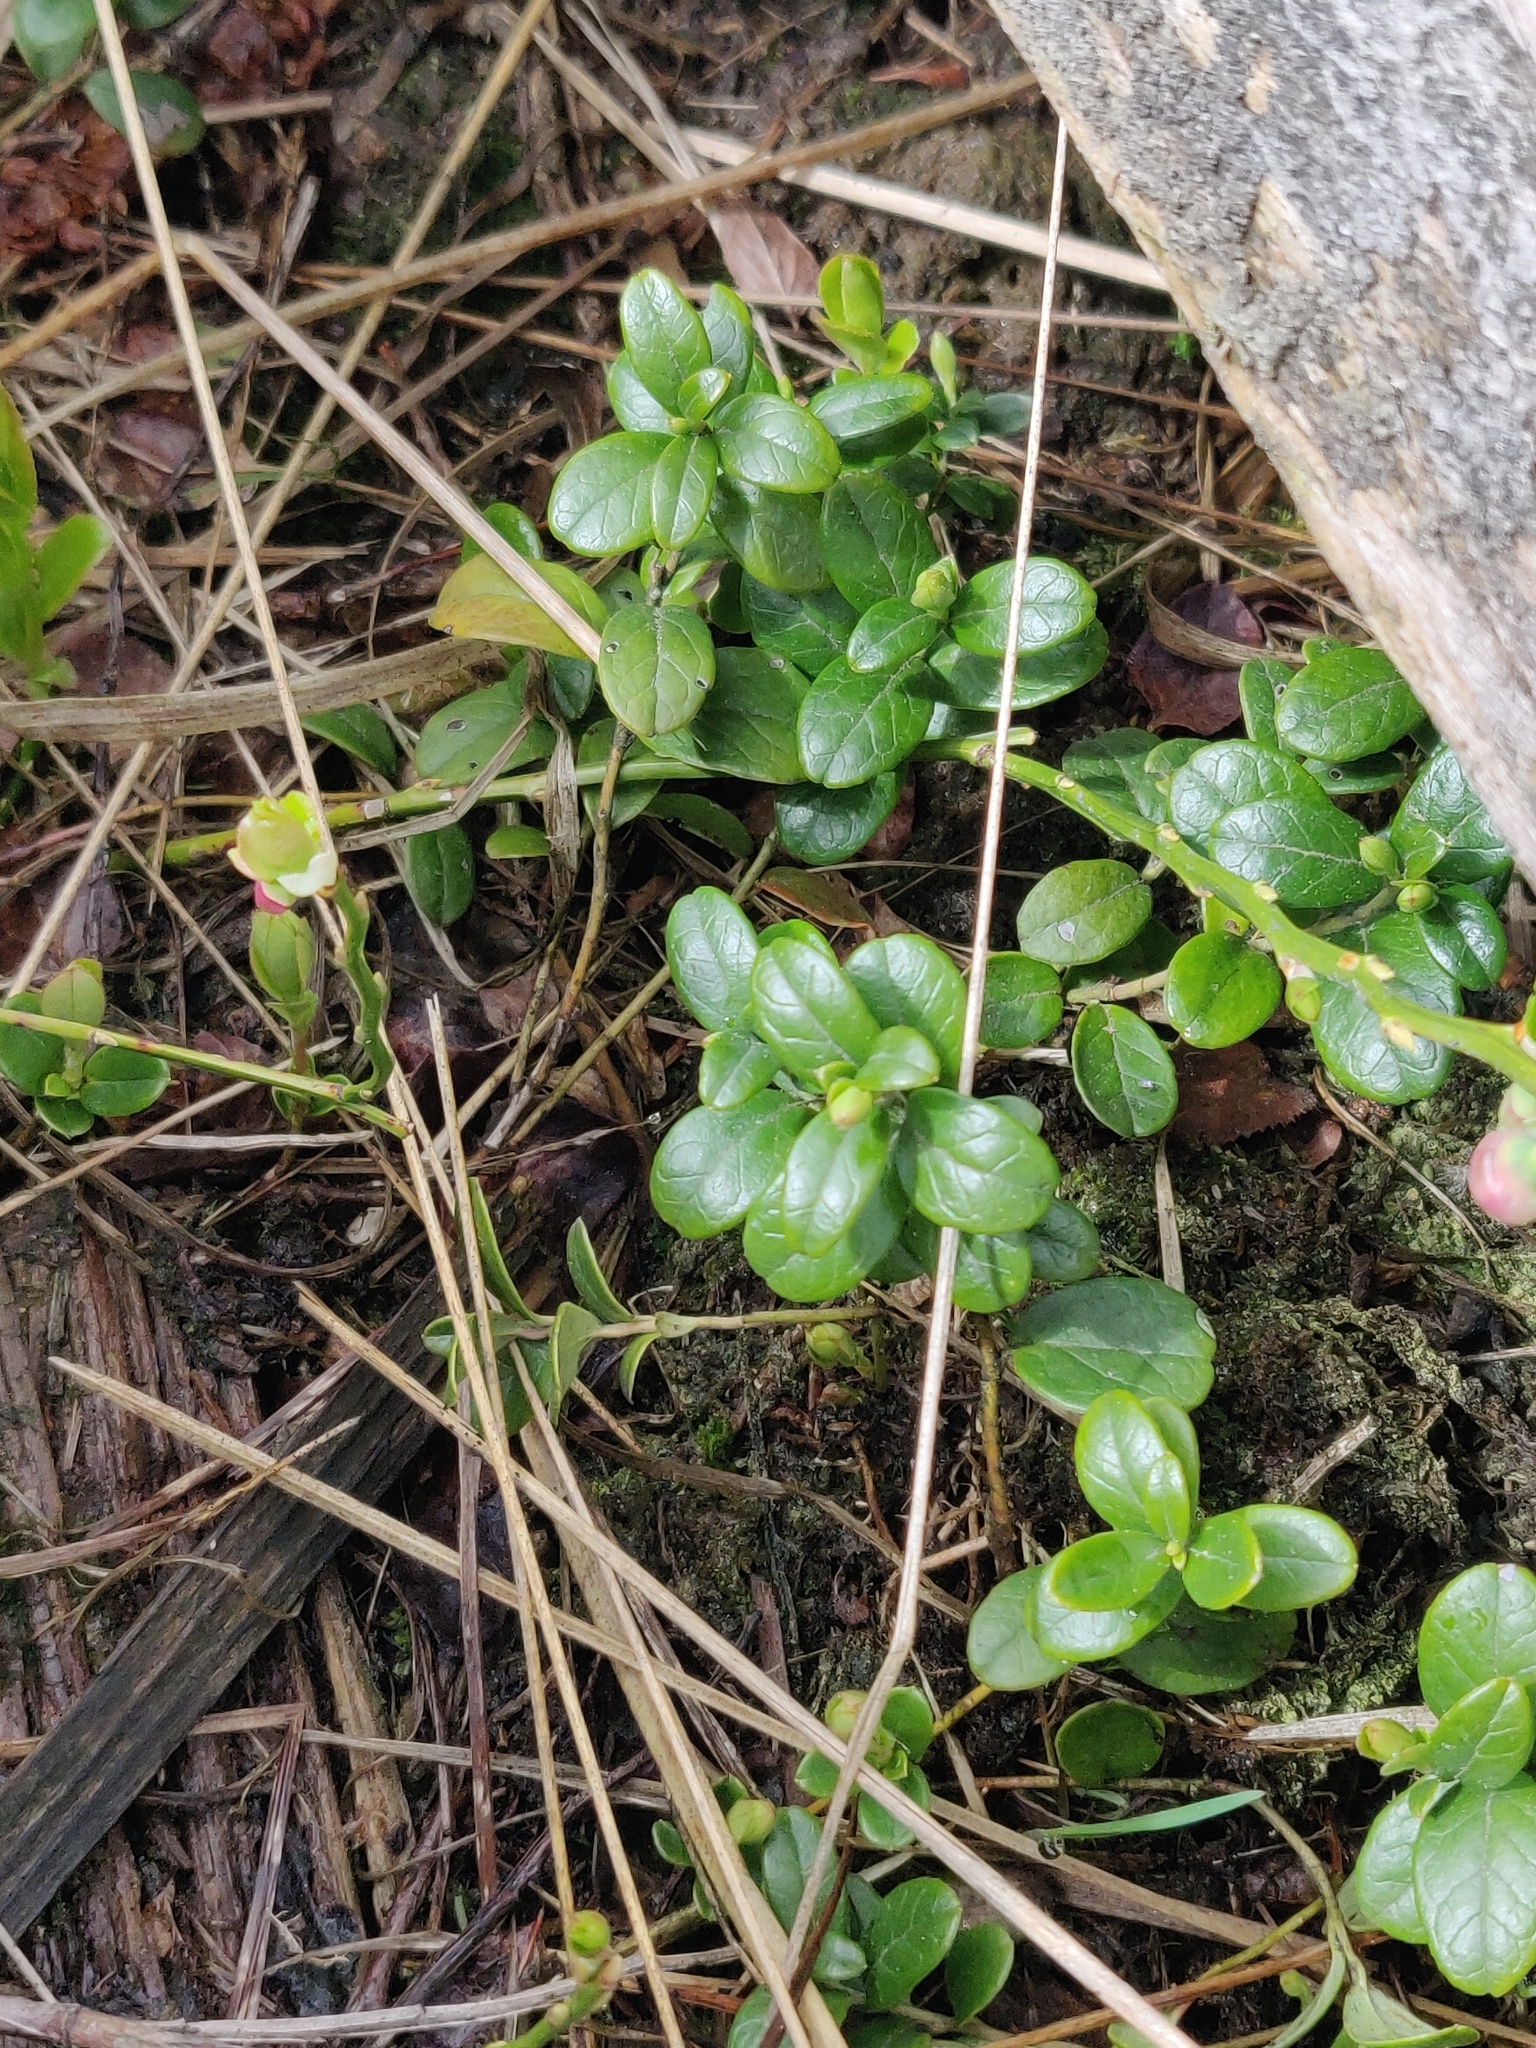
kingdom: Plantae
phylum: Tracheophyta
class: Magnoliopsida
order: Ericales
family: Ericaceae
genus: Vaccinium
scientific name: Vaccinium vitis-idaea
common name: Cowberry
